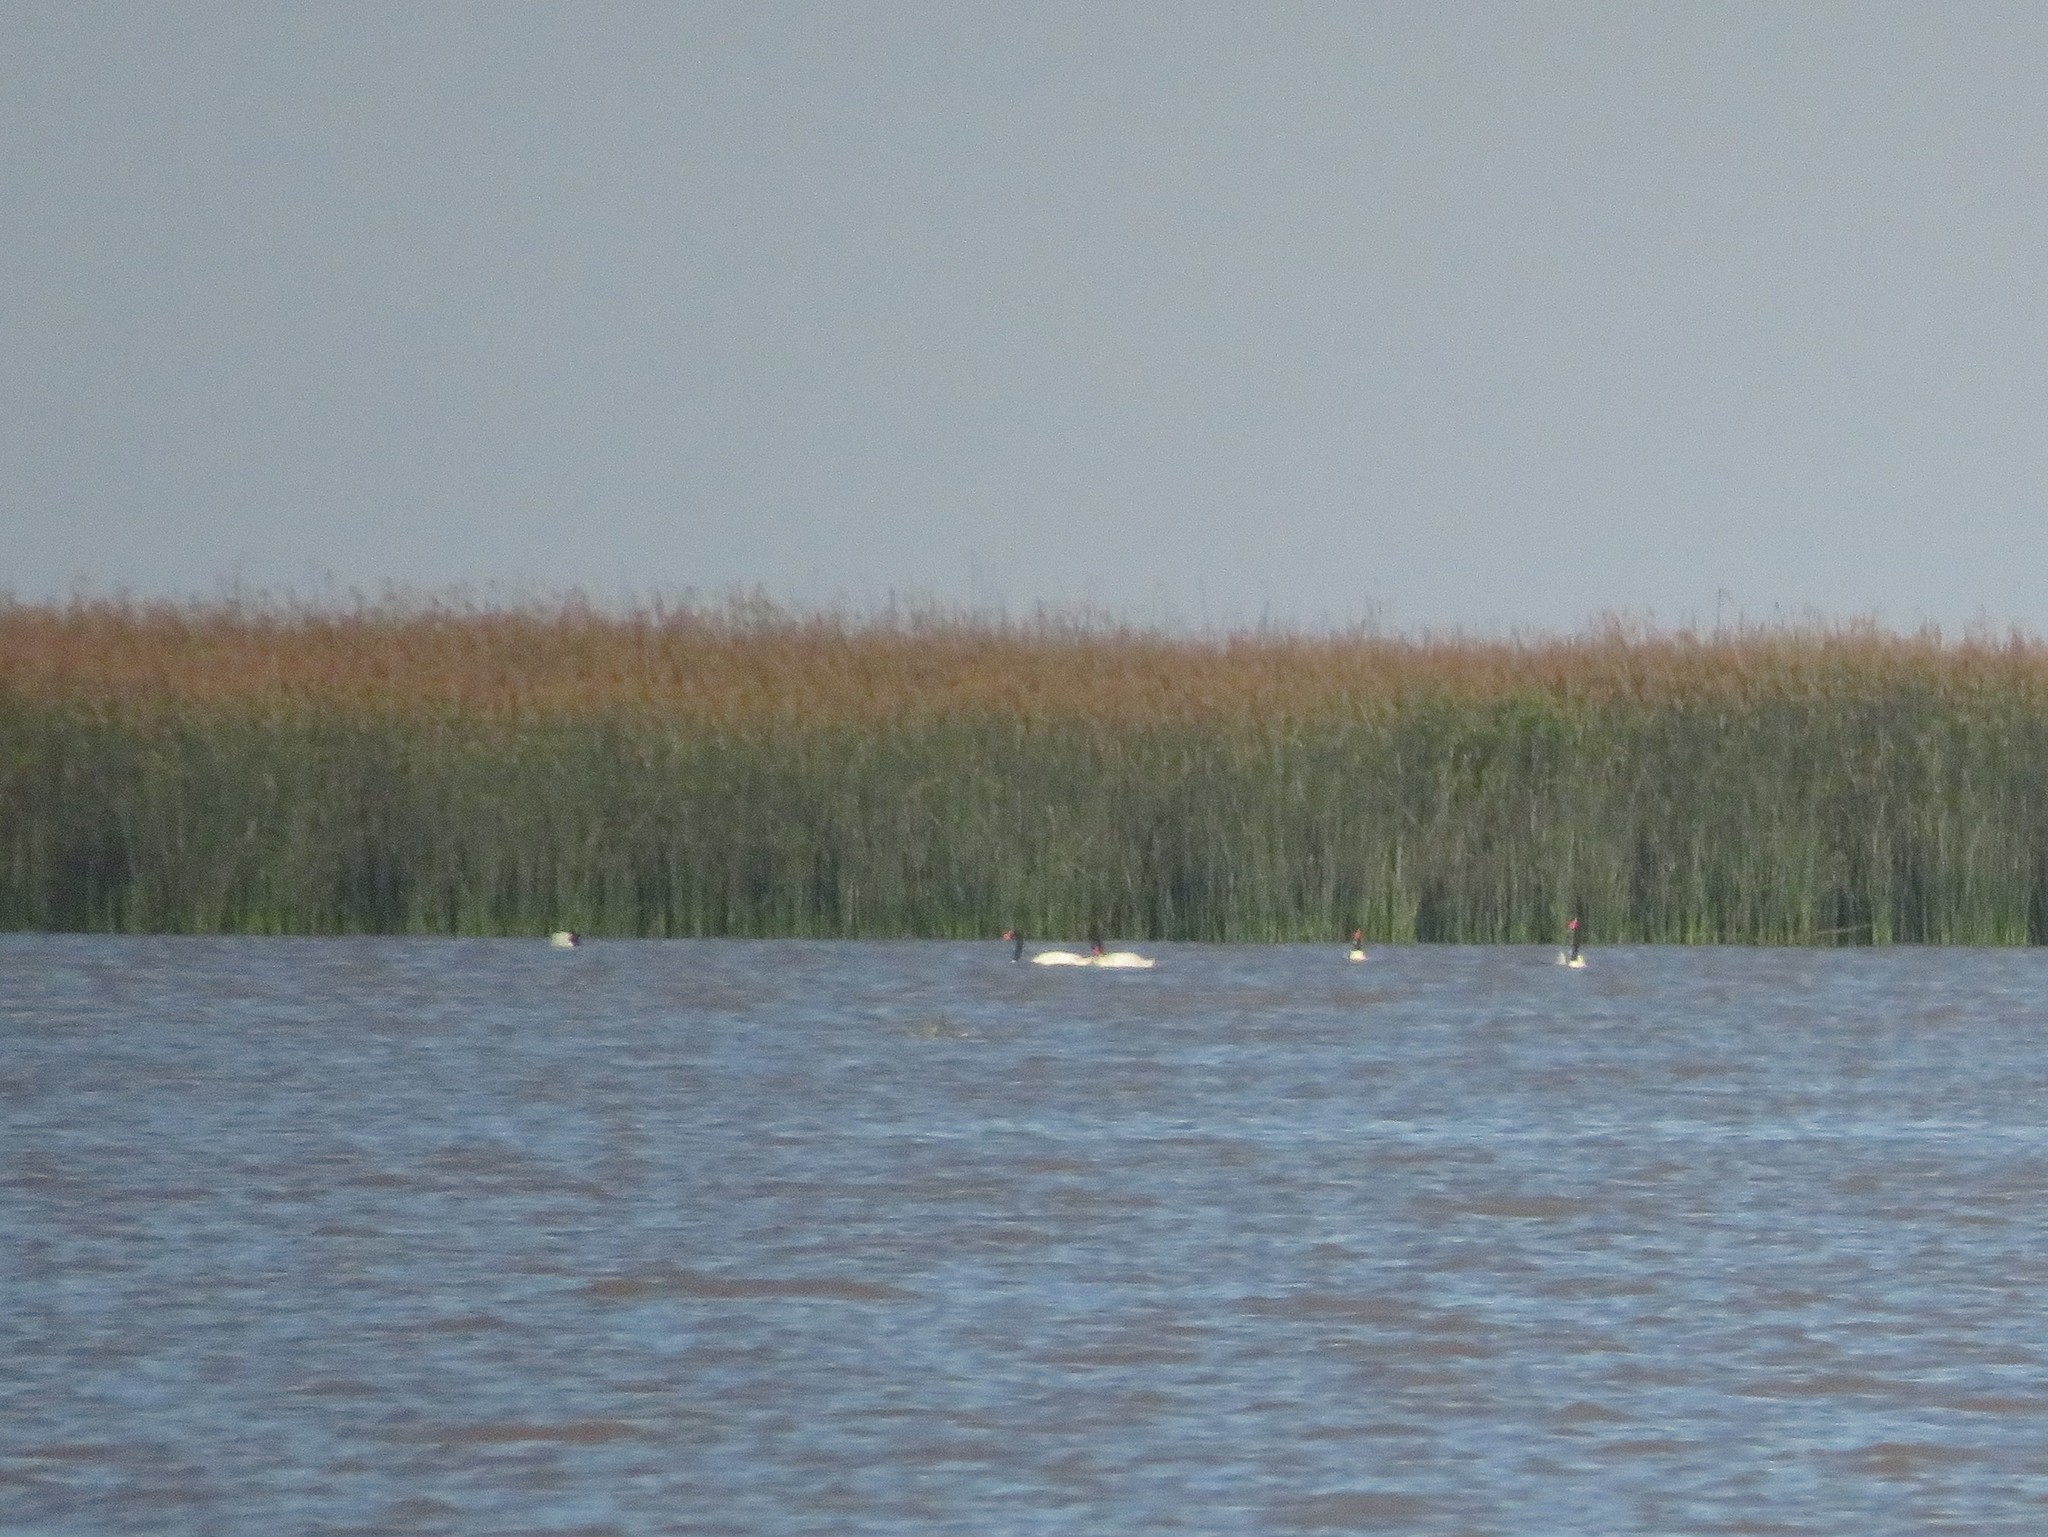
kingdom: Animalia
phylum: Chordata
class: Aves
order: Anseriformes
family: Anatidae
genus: Cygnus
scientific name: Cygnus melancoryphus
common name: Black-necked swan
